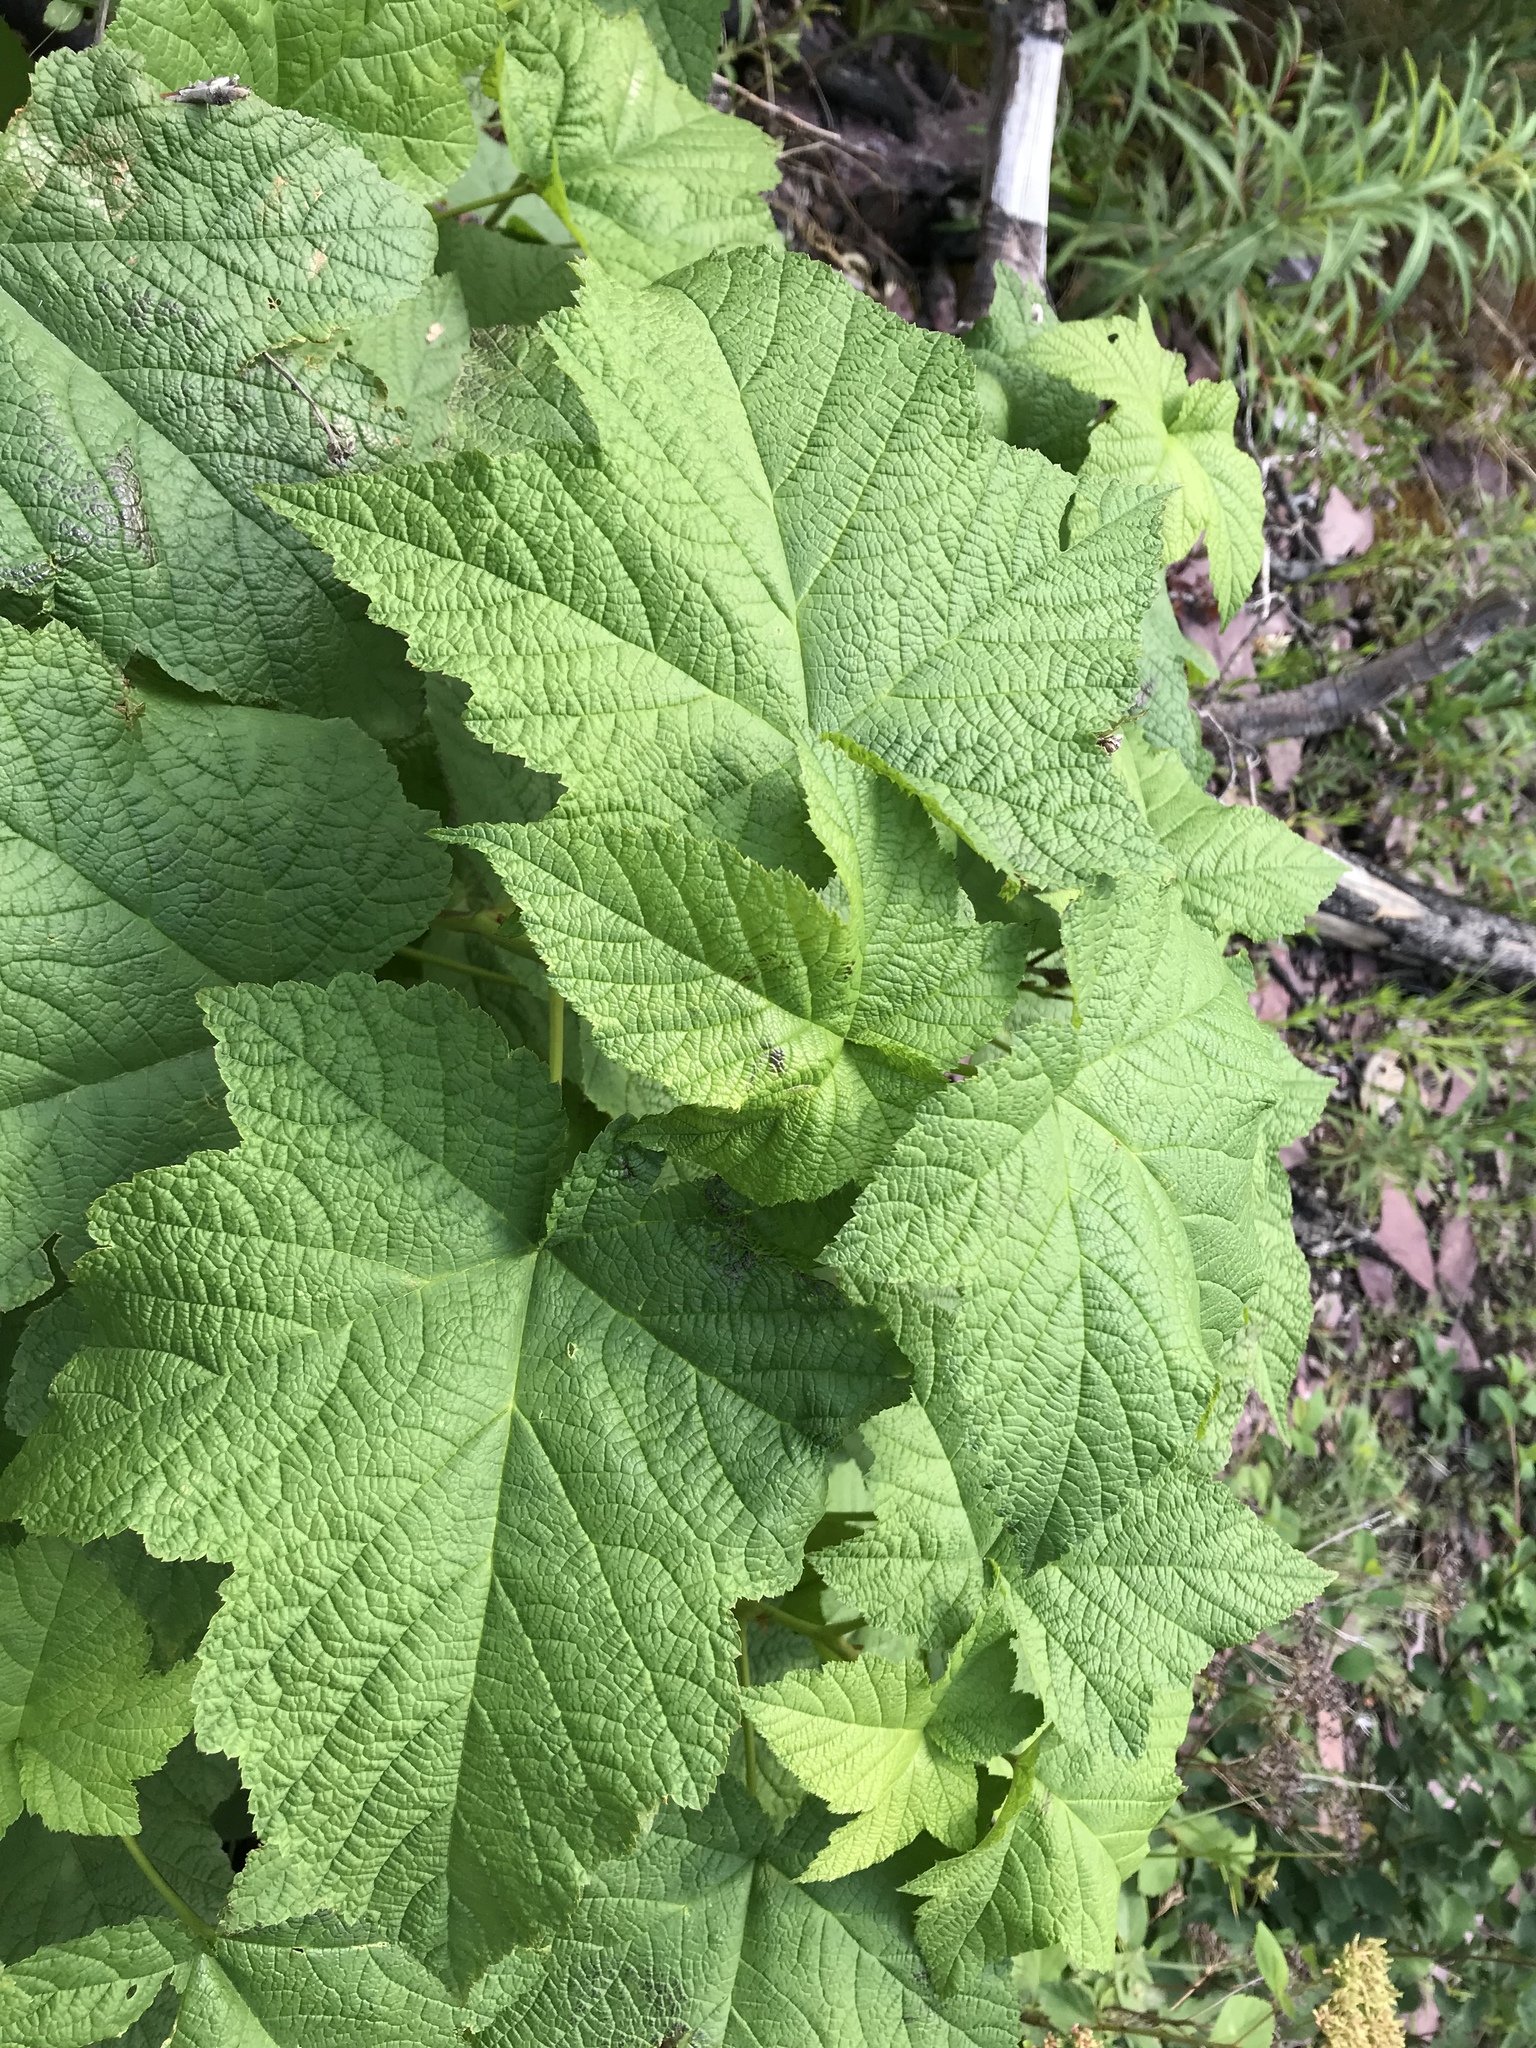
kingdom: Plantae
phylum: Tracheophyta
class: Magnoliopsida
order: Rosales
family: Rosaceae
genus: Rubus
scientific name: Rubus parviflorus
